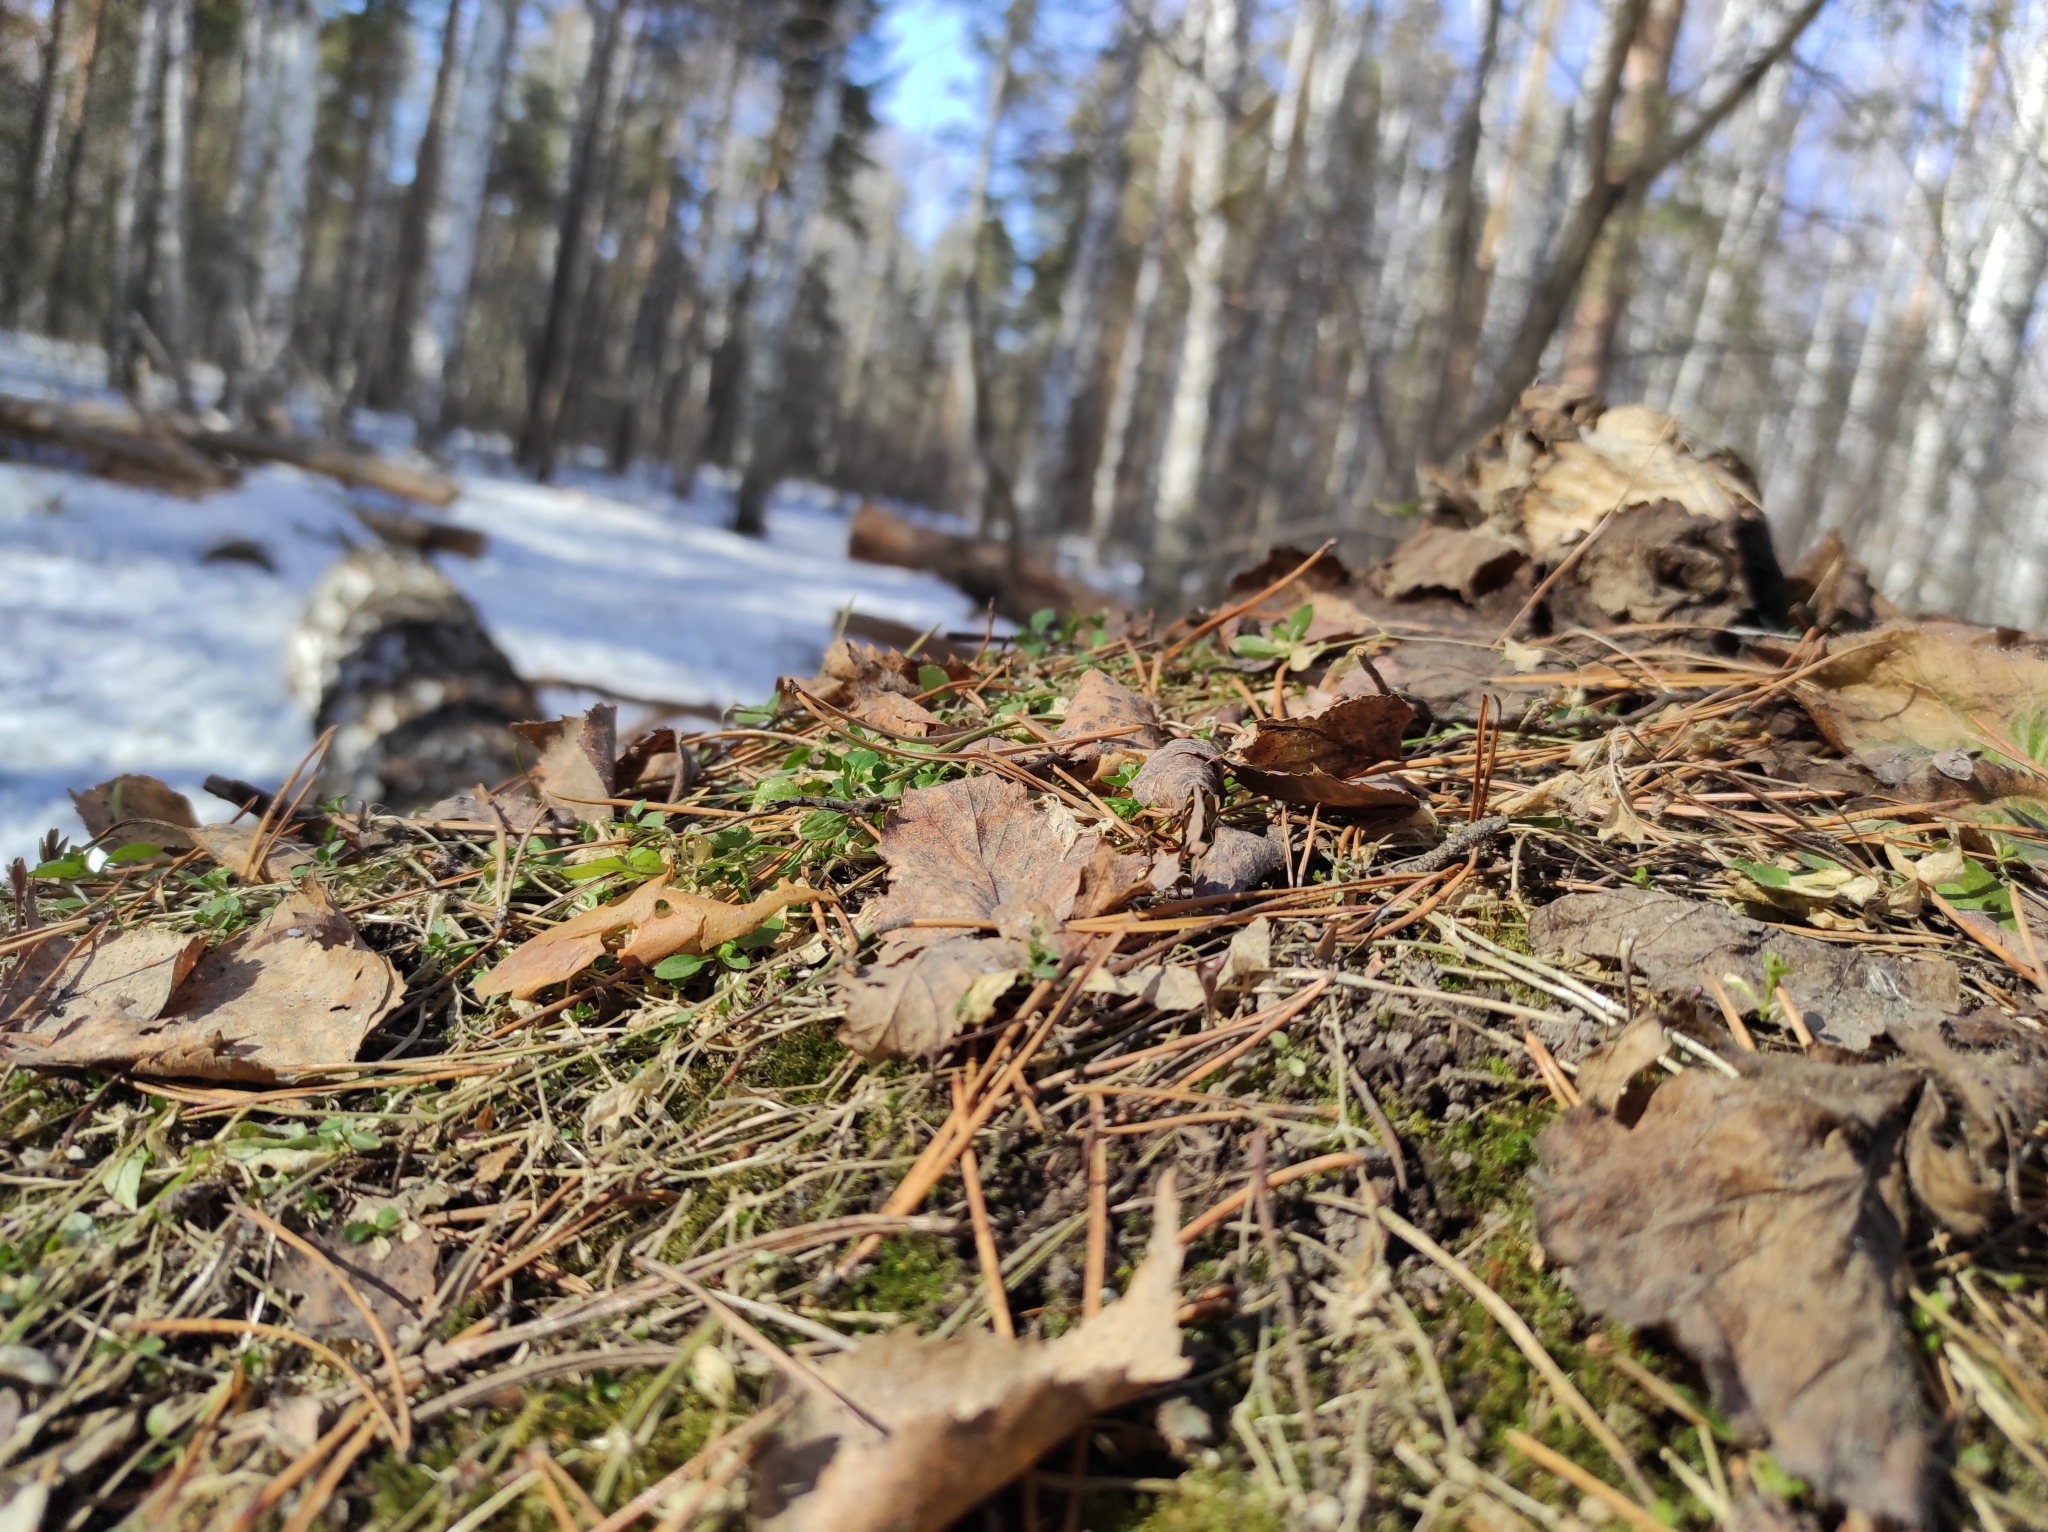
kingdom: Plantae
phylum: Tracheophyta
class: Magnoliopsida
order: Rosales
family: Rosaceae
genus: Geum
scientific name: Geum
